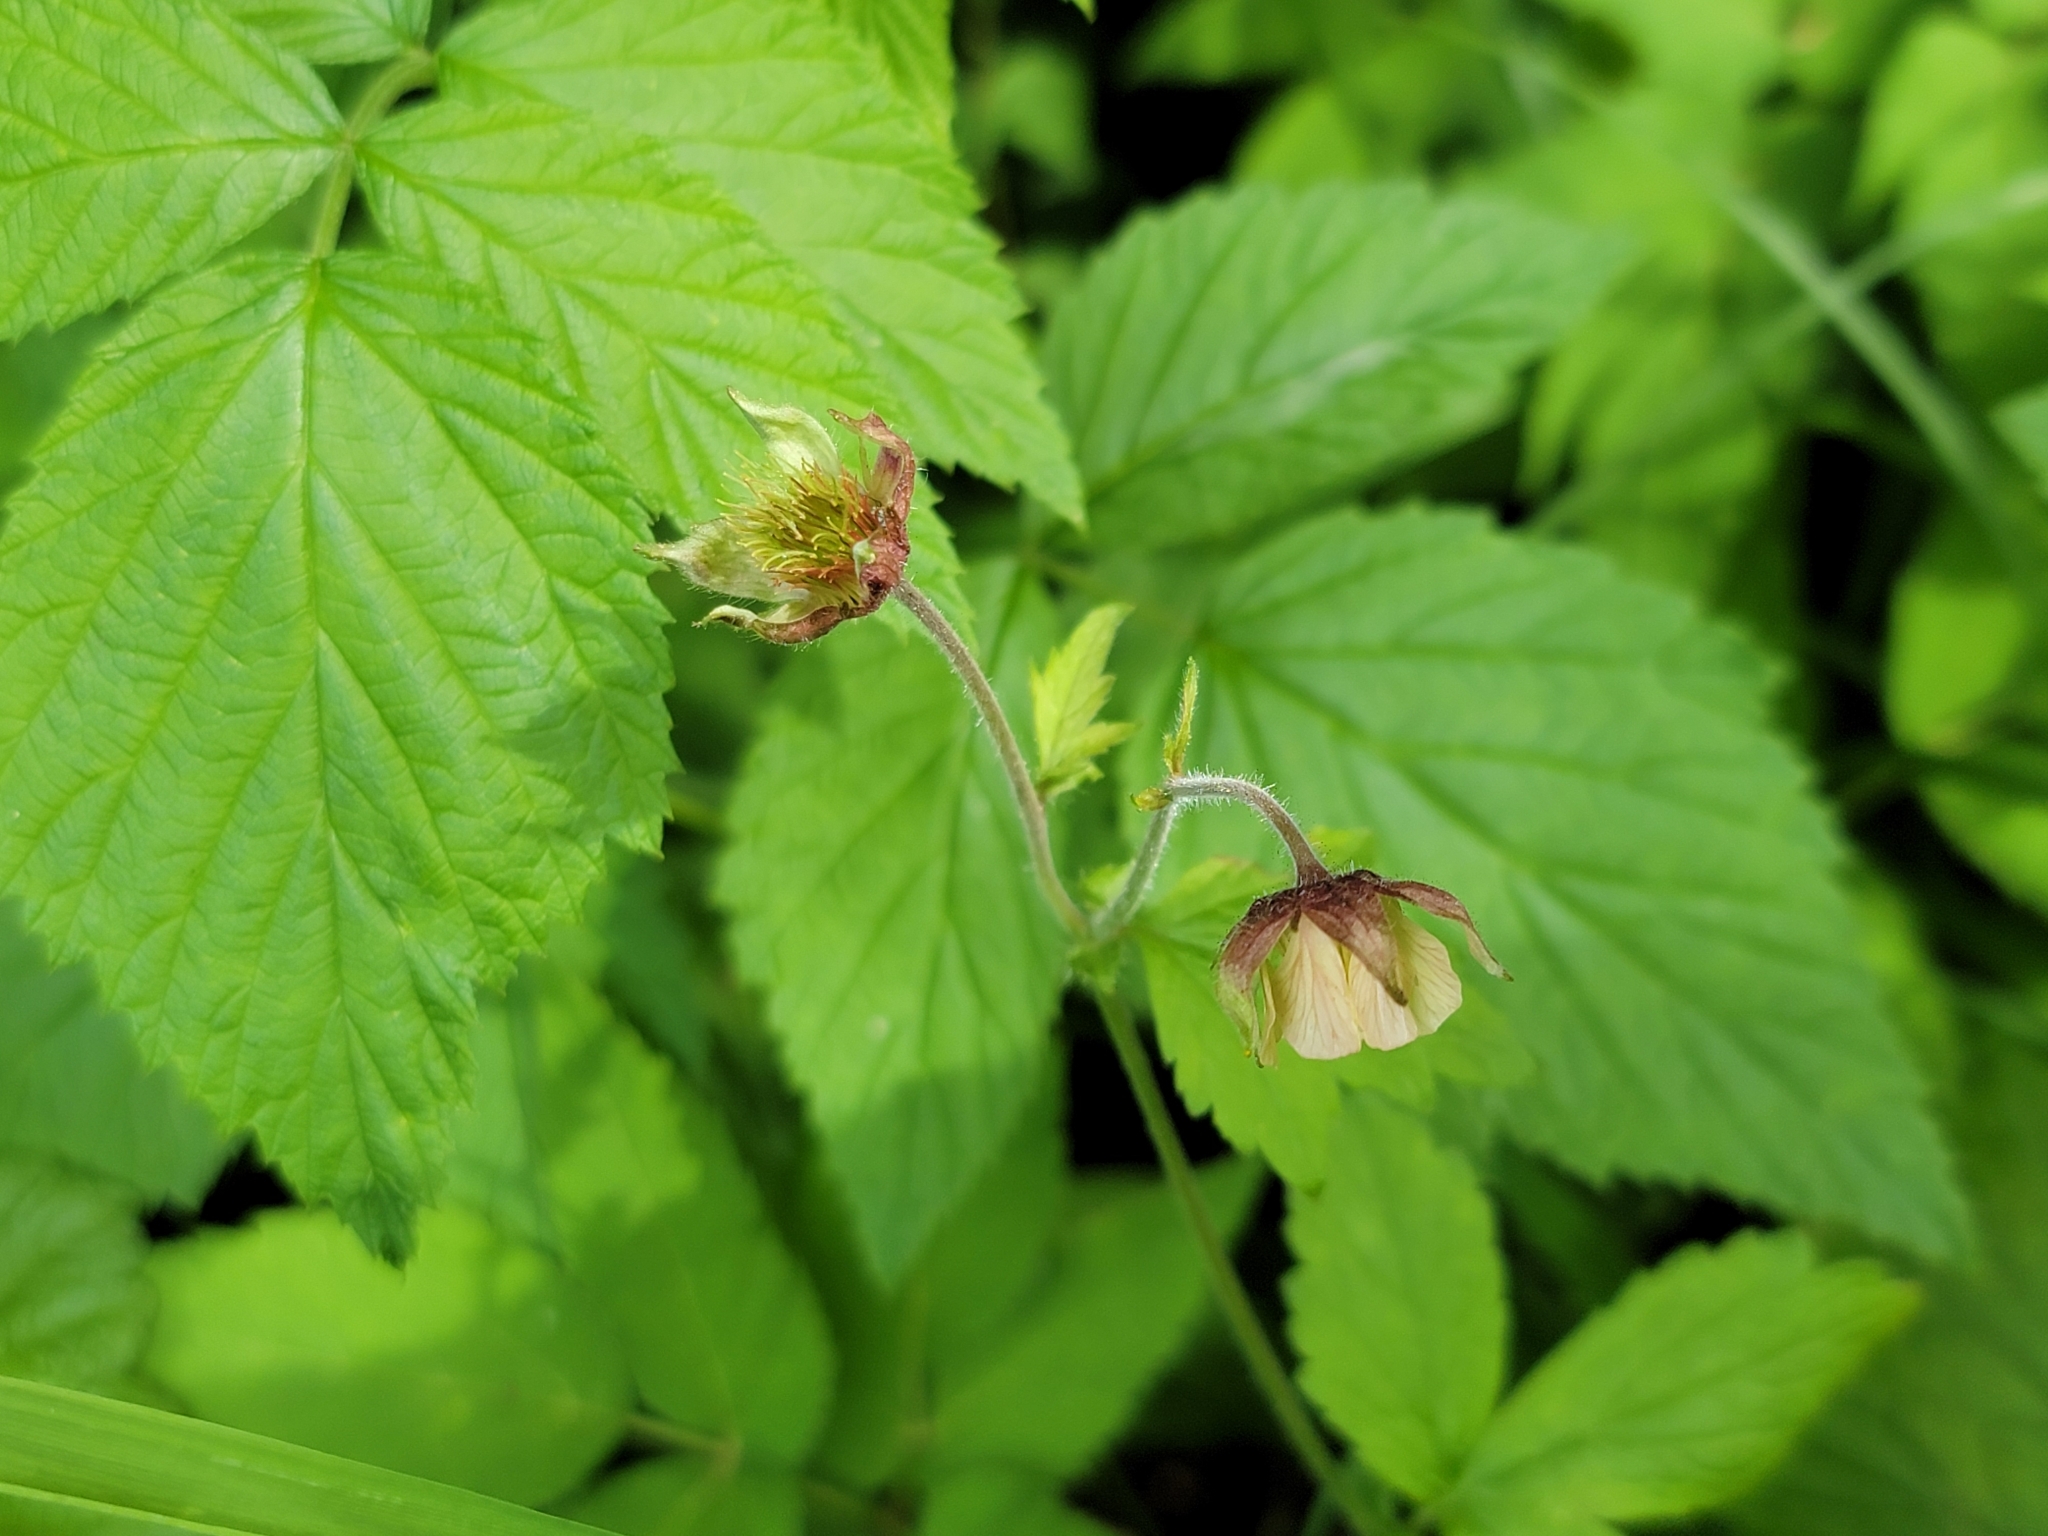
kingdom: Plantae
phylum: Tracheophyta
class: Magnoliopsida
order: Rosales
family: Rosaceae
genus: Geum
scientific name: Geum rivale
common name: Water avens
